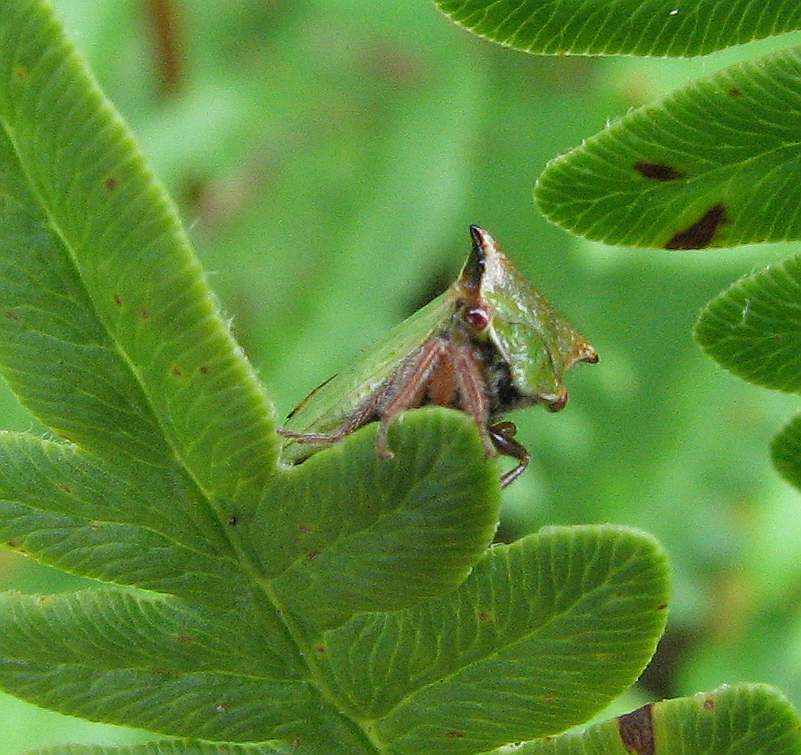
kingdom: Animalia
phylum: Arthropoda
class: Insecta
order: Hemiptera
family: Membracidae
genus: Stictocephala
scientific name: Stictocephala basalis
